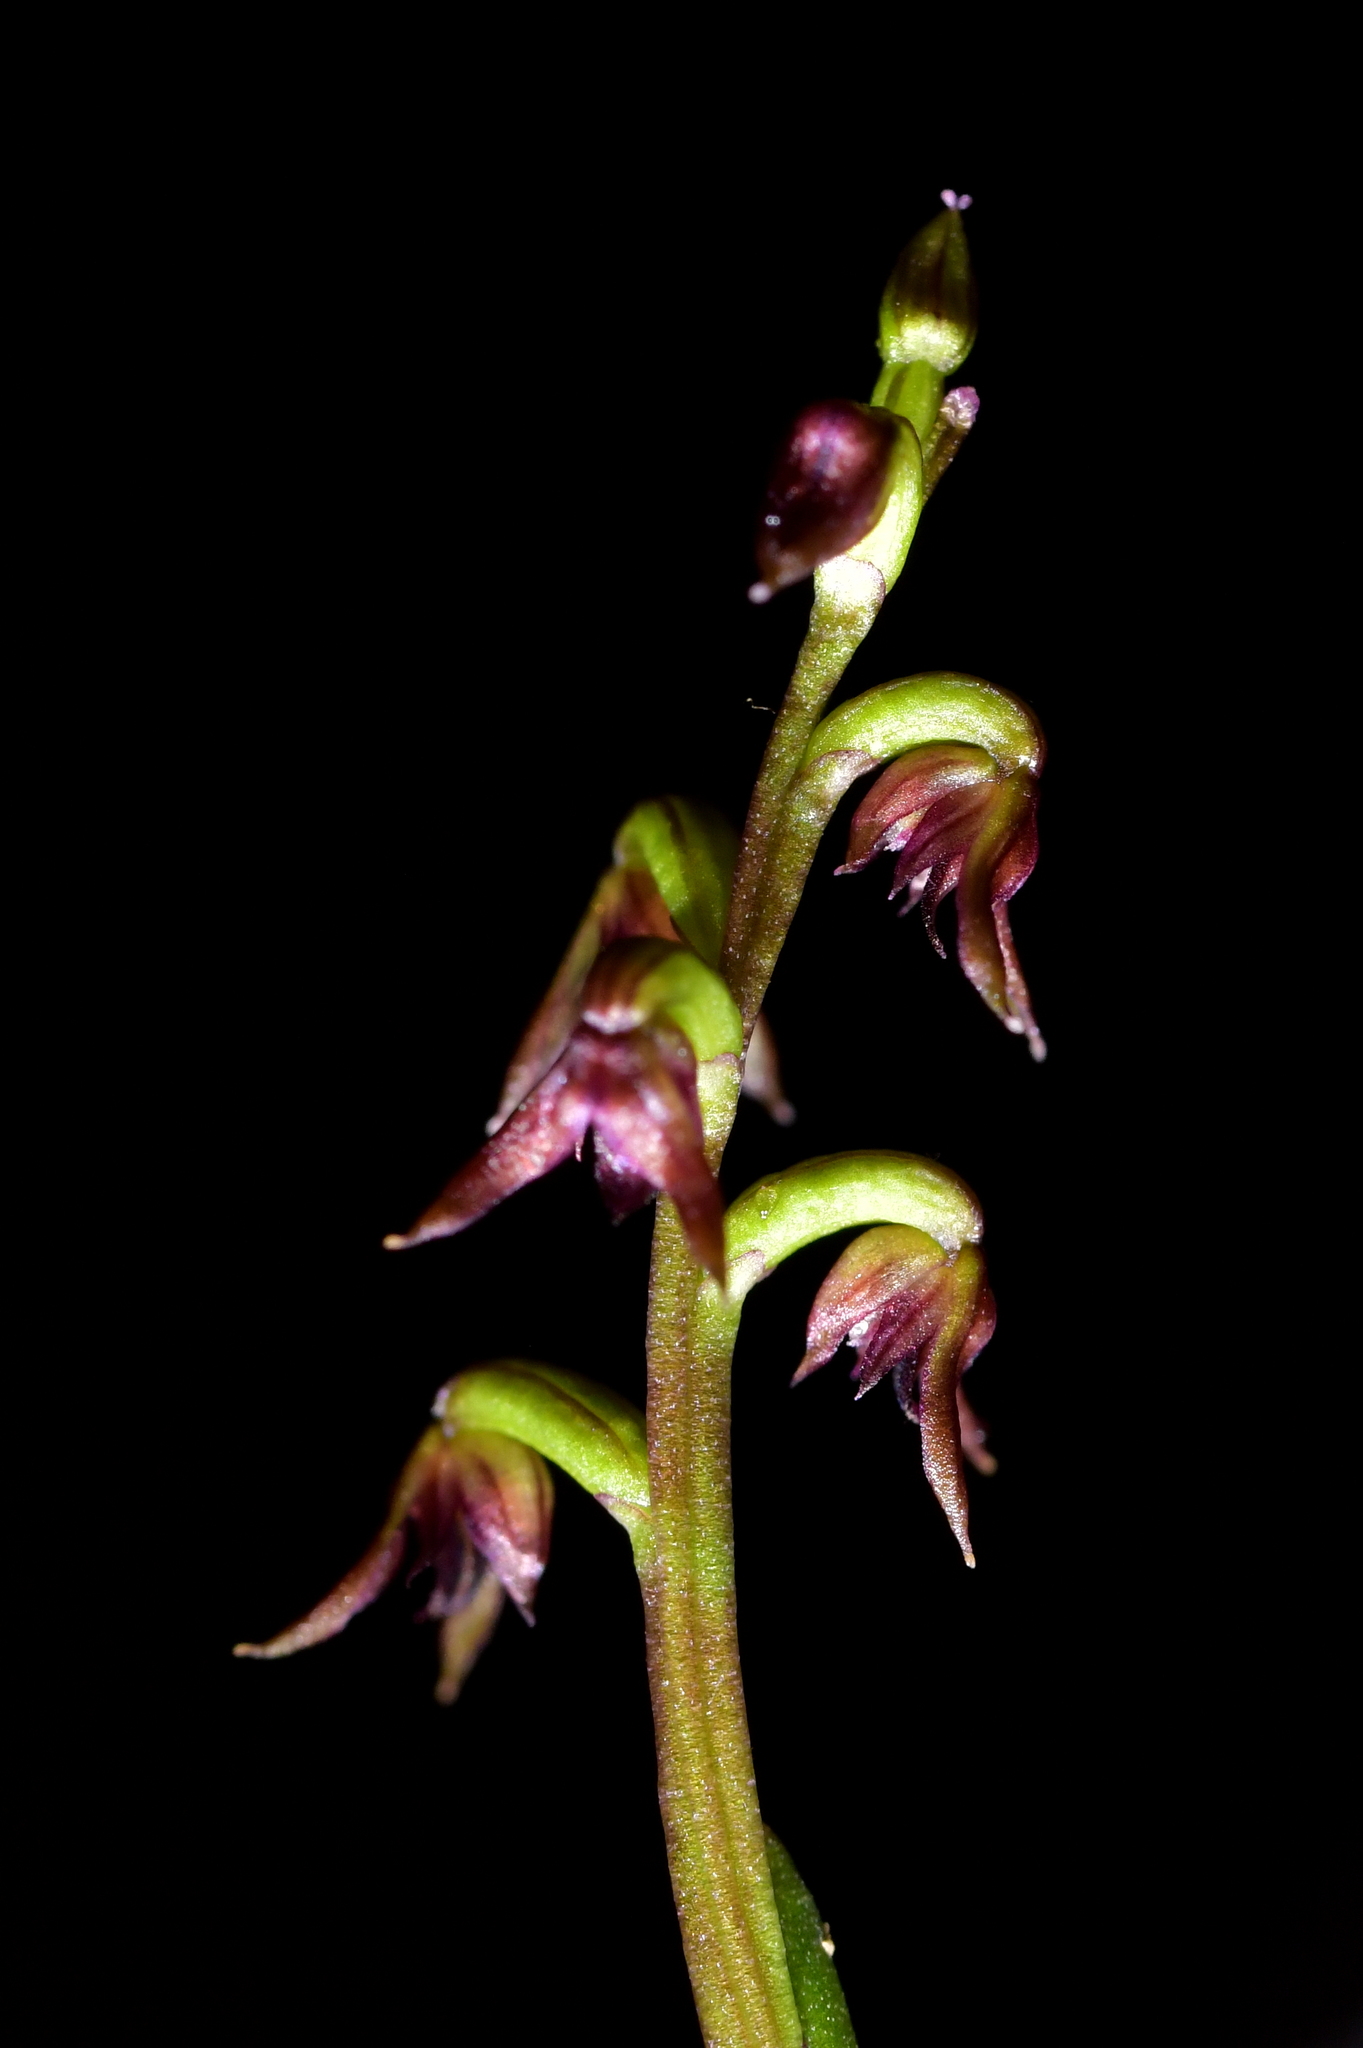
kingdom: Plantae
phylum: Tracheophyta
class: Liliopsida
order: Asparagales
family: Orchidaceae
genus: Genoplesium
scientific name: Genoplesium nudum
